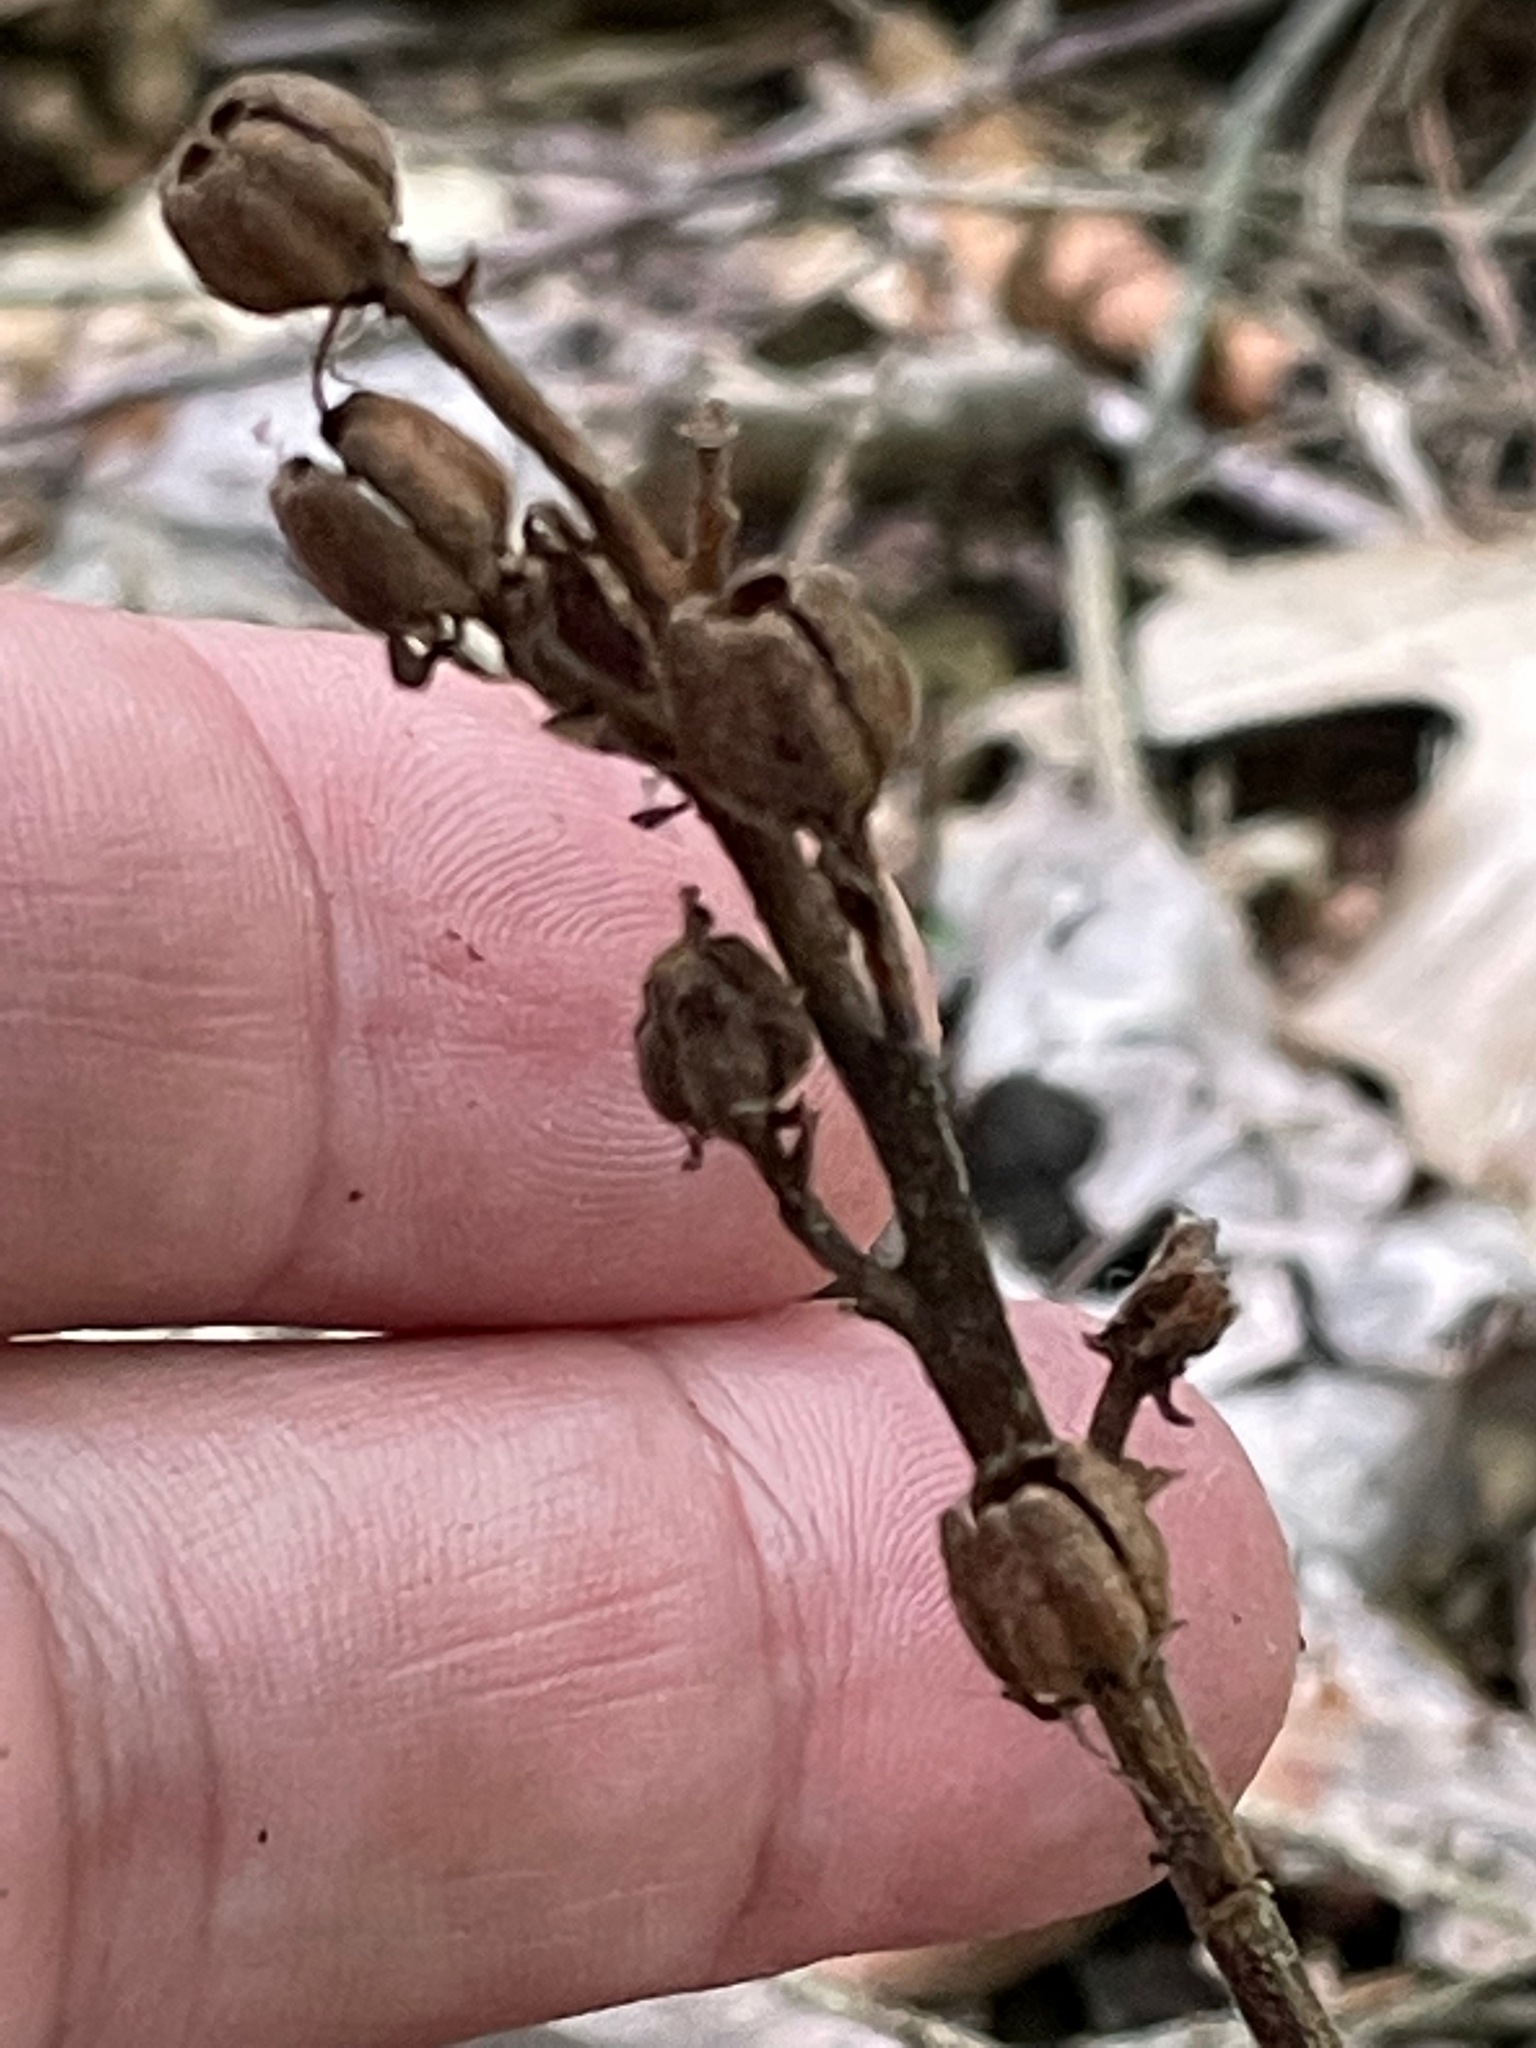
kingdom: Plantae
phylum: Tracheophyta
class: Magnoliopsida
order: Ericales
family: Ericaceae
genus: Hypopitys
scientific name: Hypopitys monotropa
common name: Yellow bird's-nest
